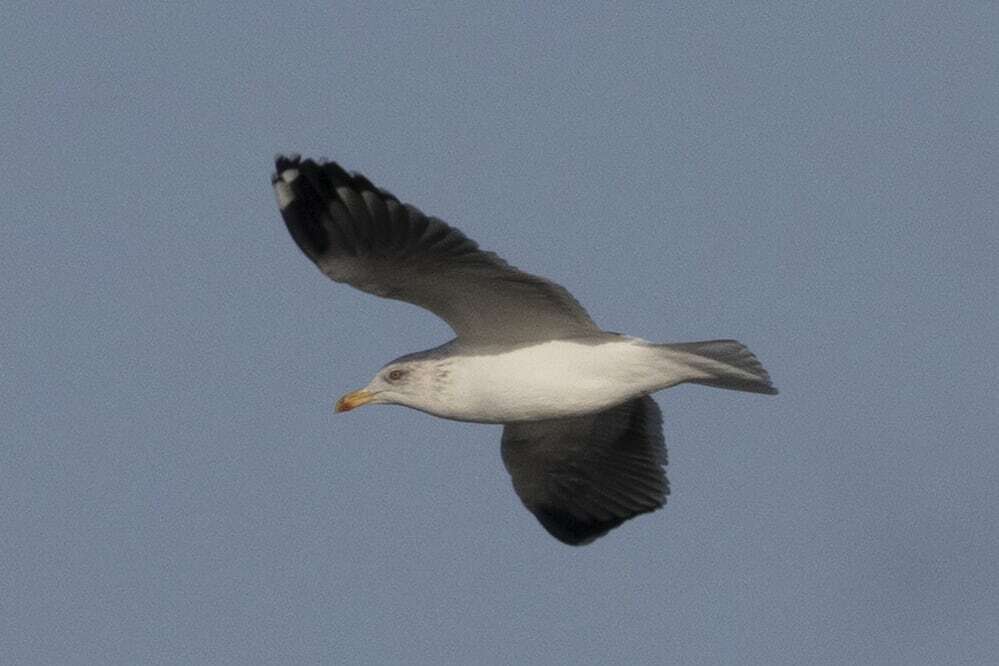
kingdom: Animalia
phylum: Chordata
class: Aves
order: Charadriiformes
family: Laridae
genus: Larus
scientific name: Larus fuscus
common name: Lesser black-backed gull
